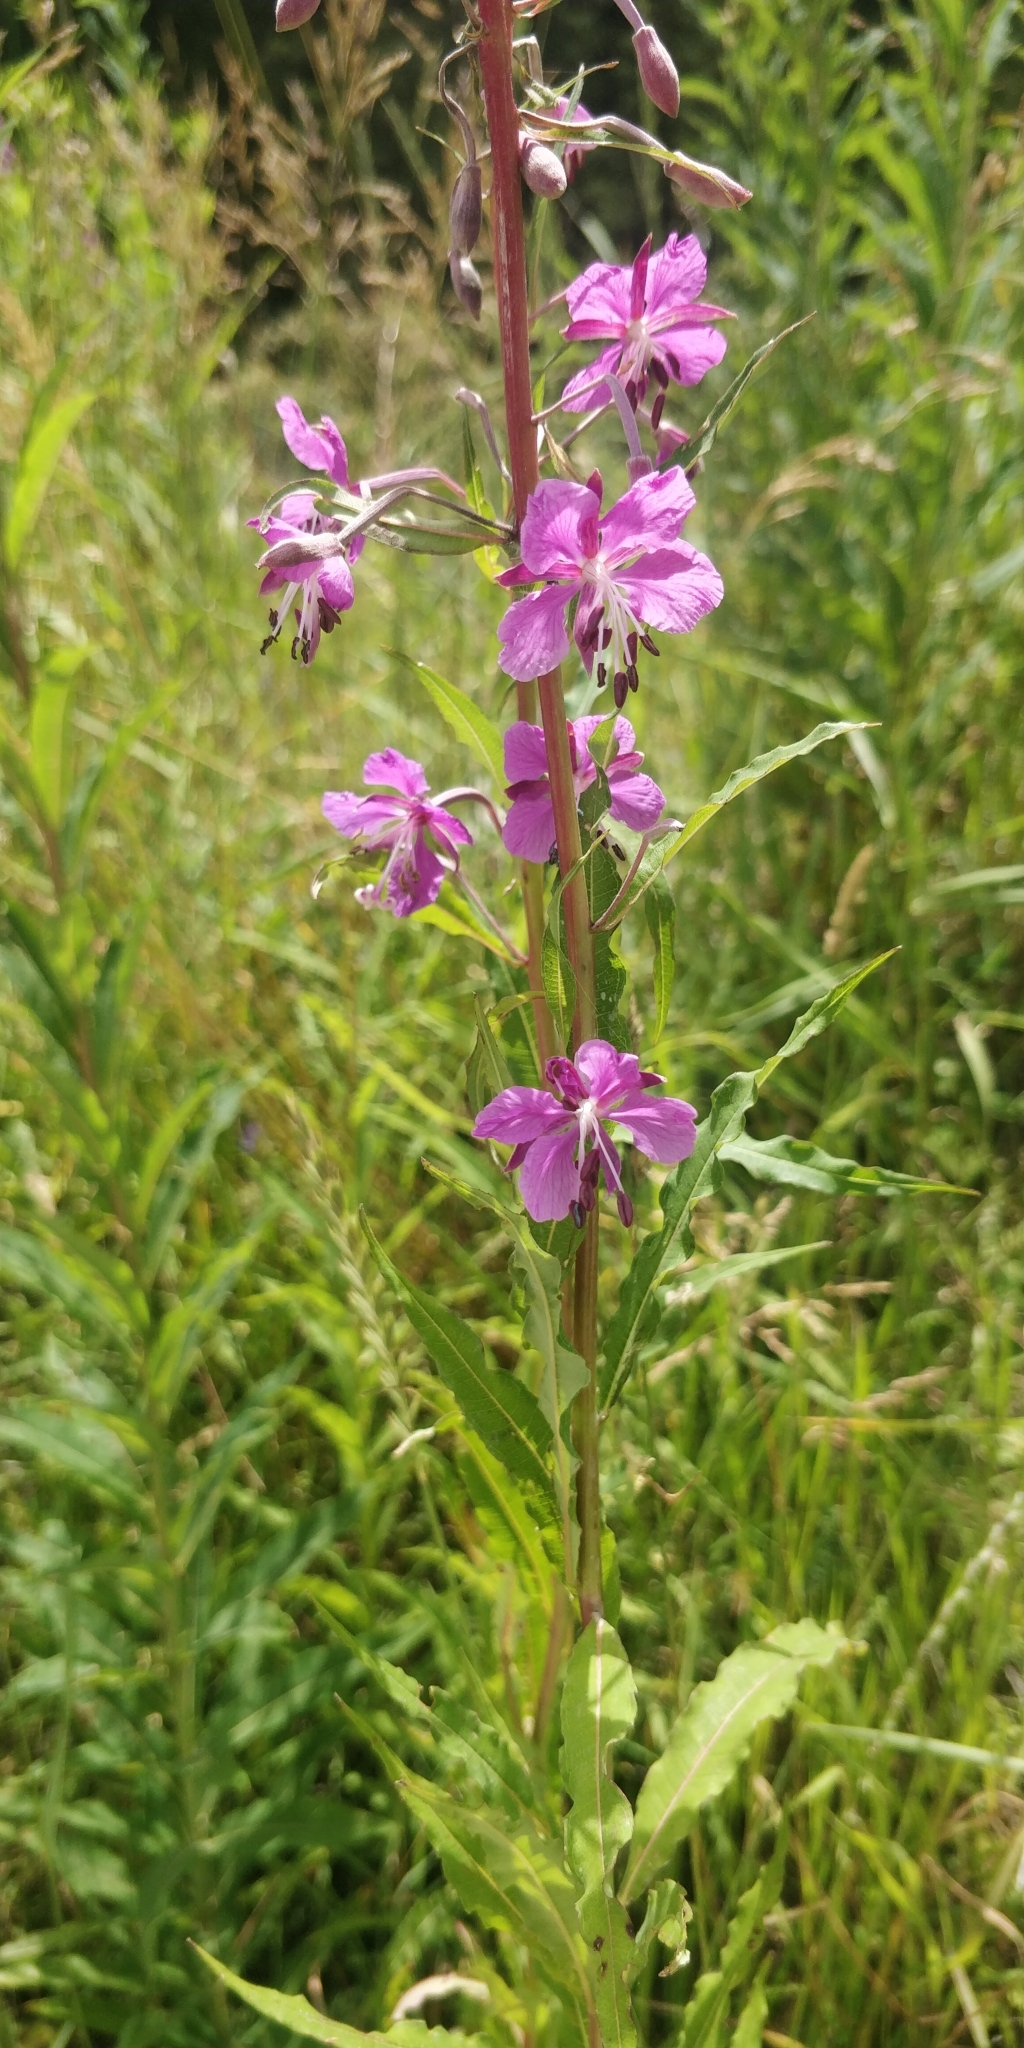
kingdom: Plantae
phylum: Tracheophyta
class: Magnoliopsida
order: Myrtales
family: Onagraceae
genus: Chamaenerion
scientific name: Chamaenerion angustifolium
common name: Fireweed
